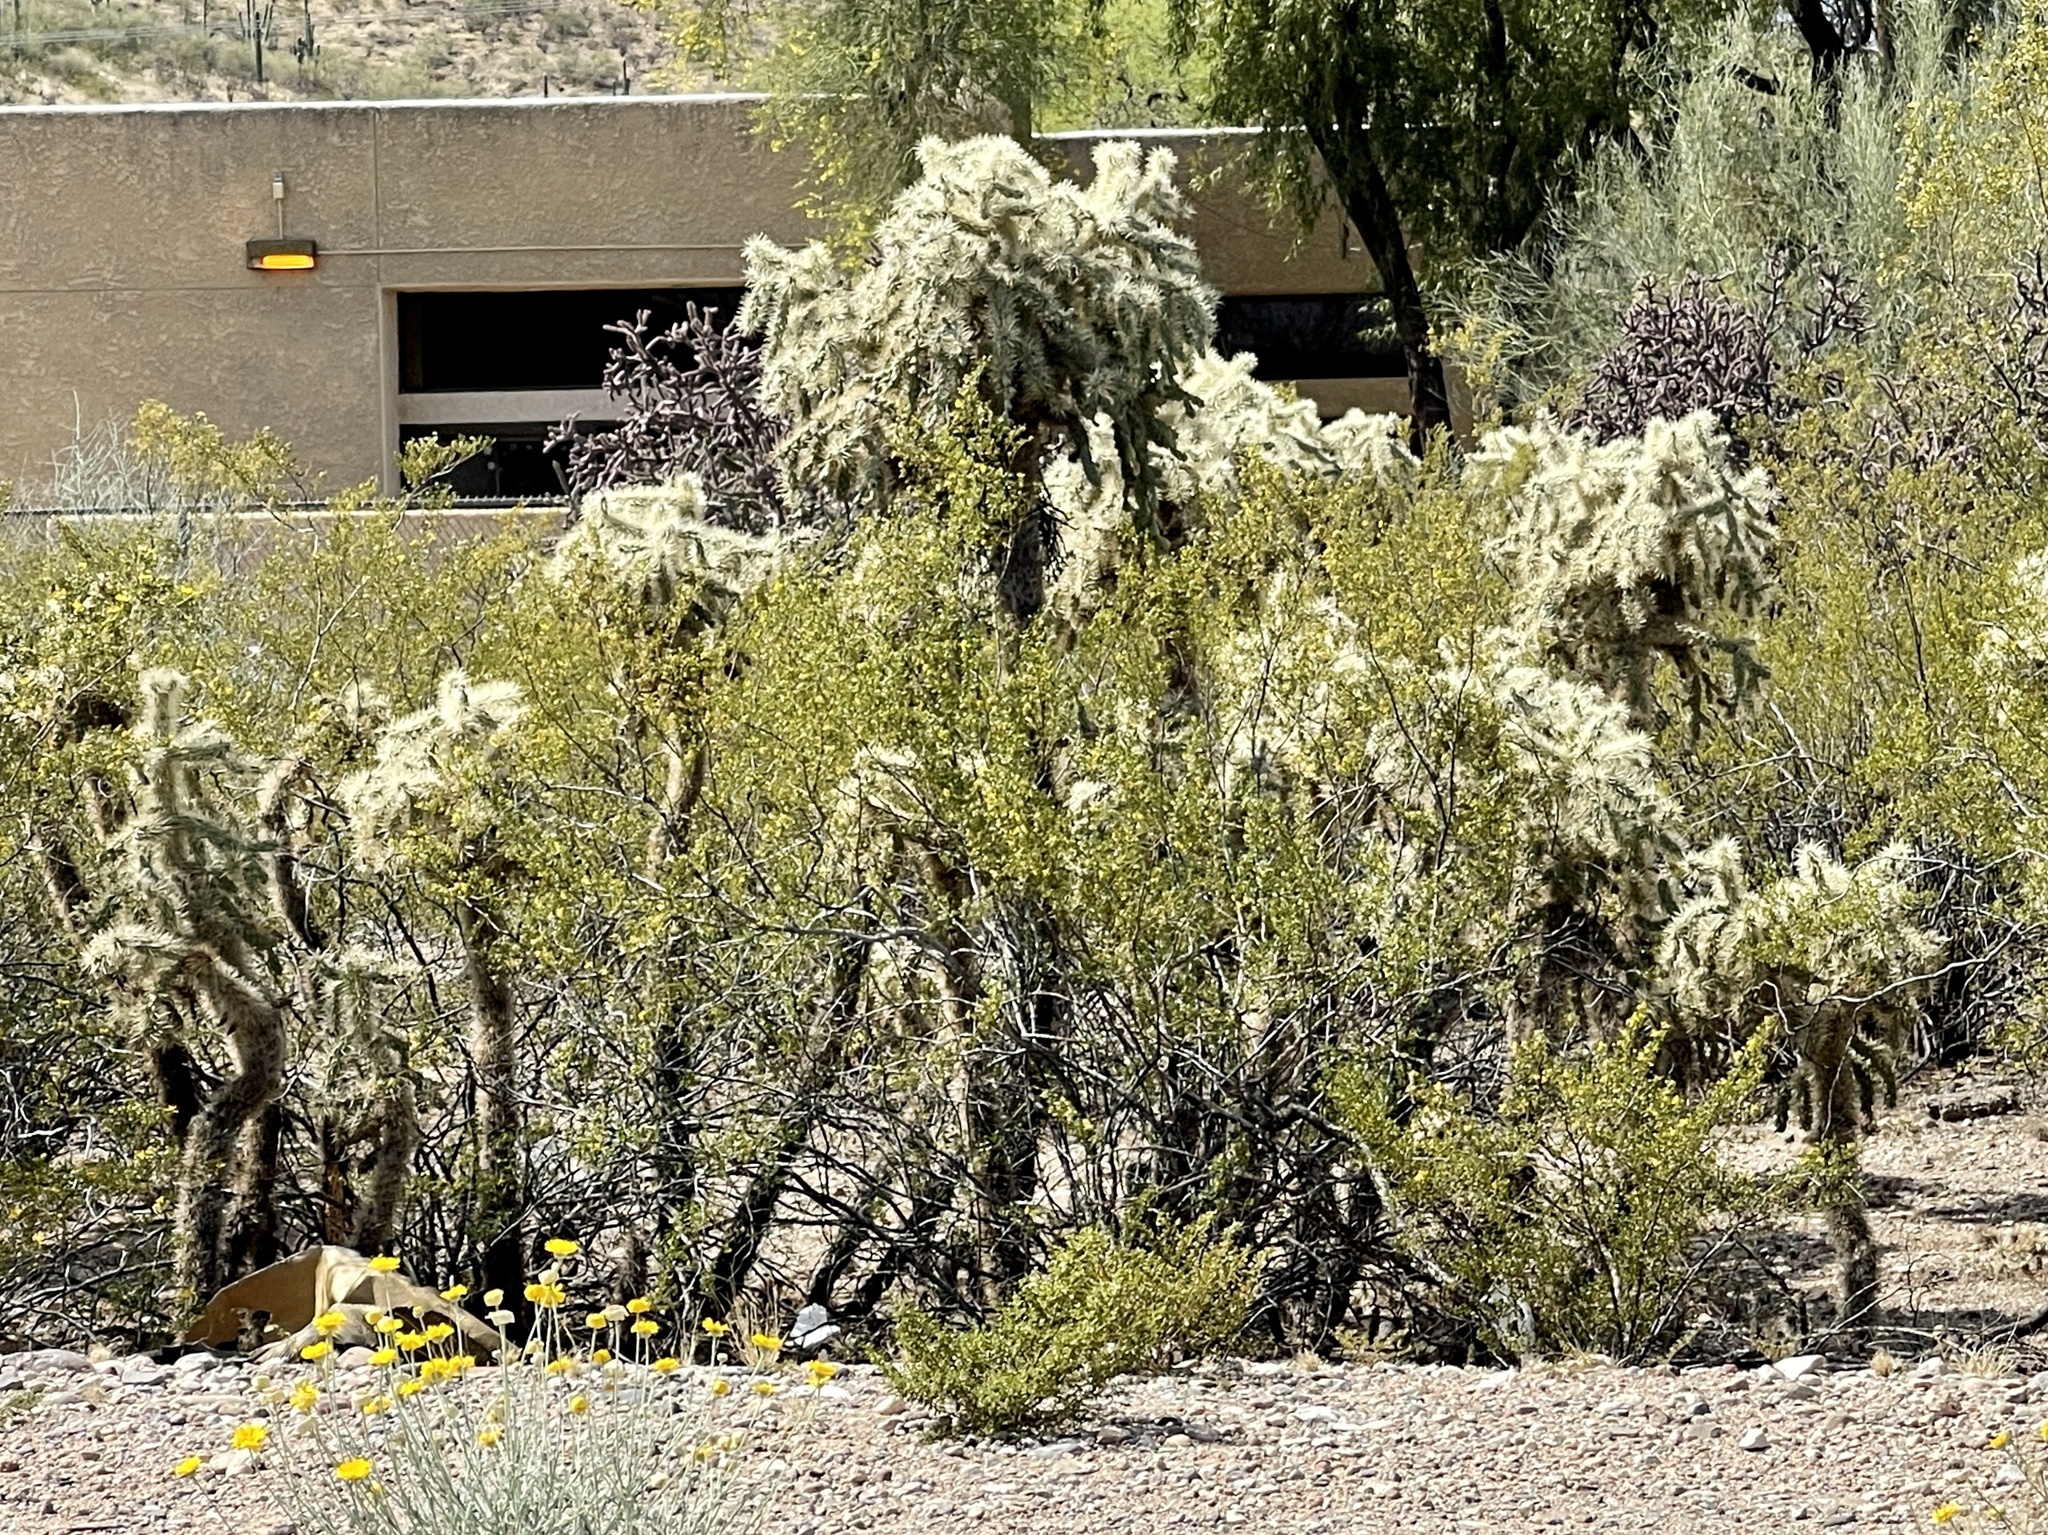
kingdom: Plantae
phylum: Tracheophyta
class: Magnoliopsida
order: Caryophyllales
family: Cactaceae
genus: Cylindropuntia
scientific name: Cylindropuntia fulgida
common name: Jumping cholla
